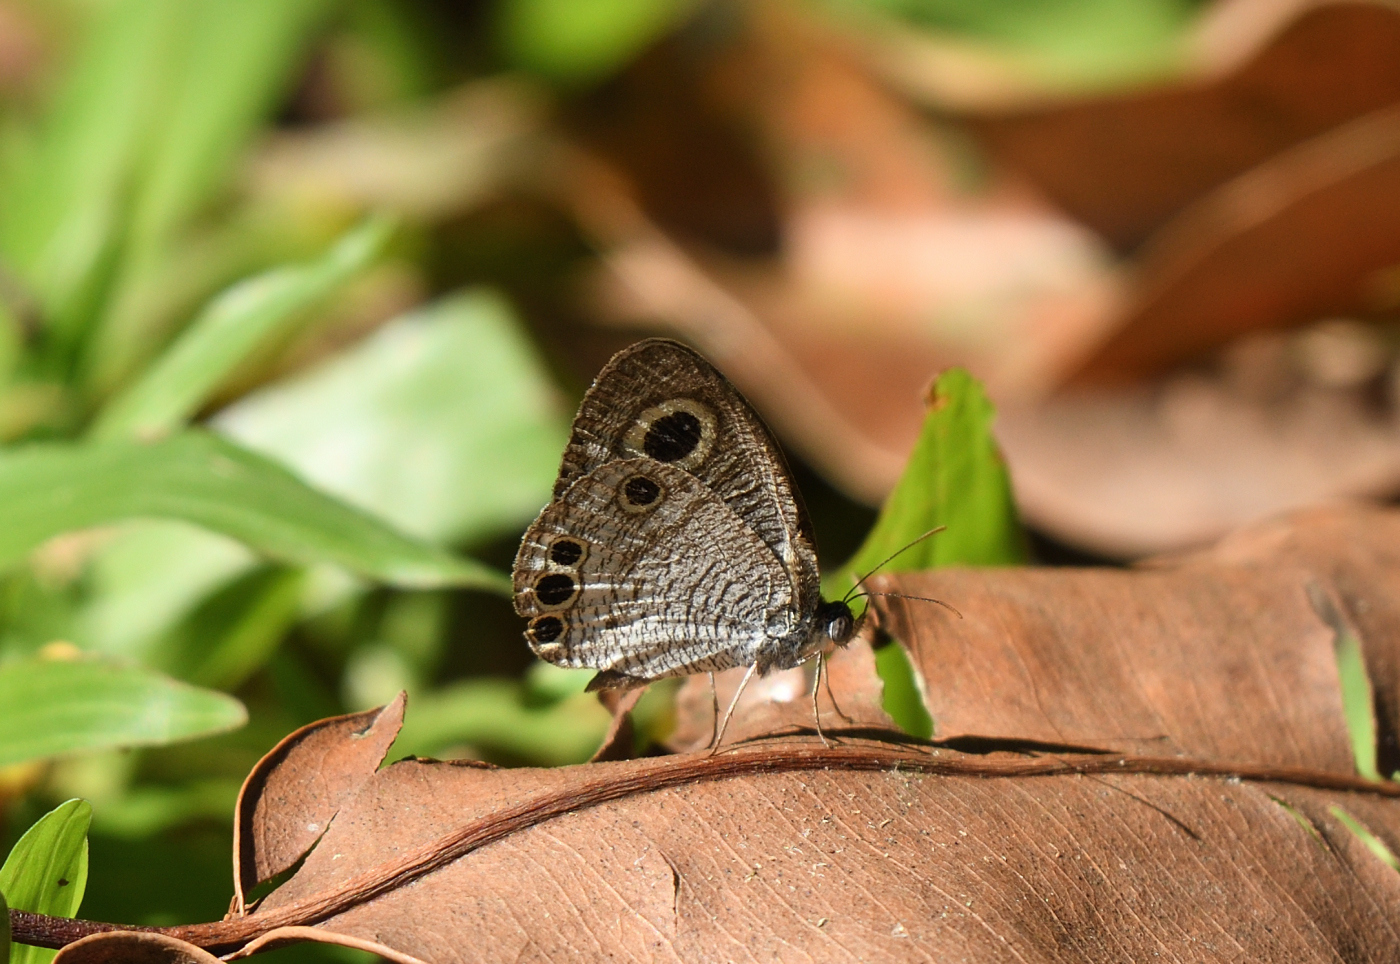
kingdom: Animalia
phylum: Arthropoda
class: Insecta
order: Lepidoptera
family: Nymphalidae
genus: Ypthima
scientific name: Ypthima huebneri
